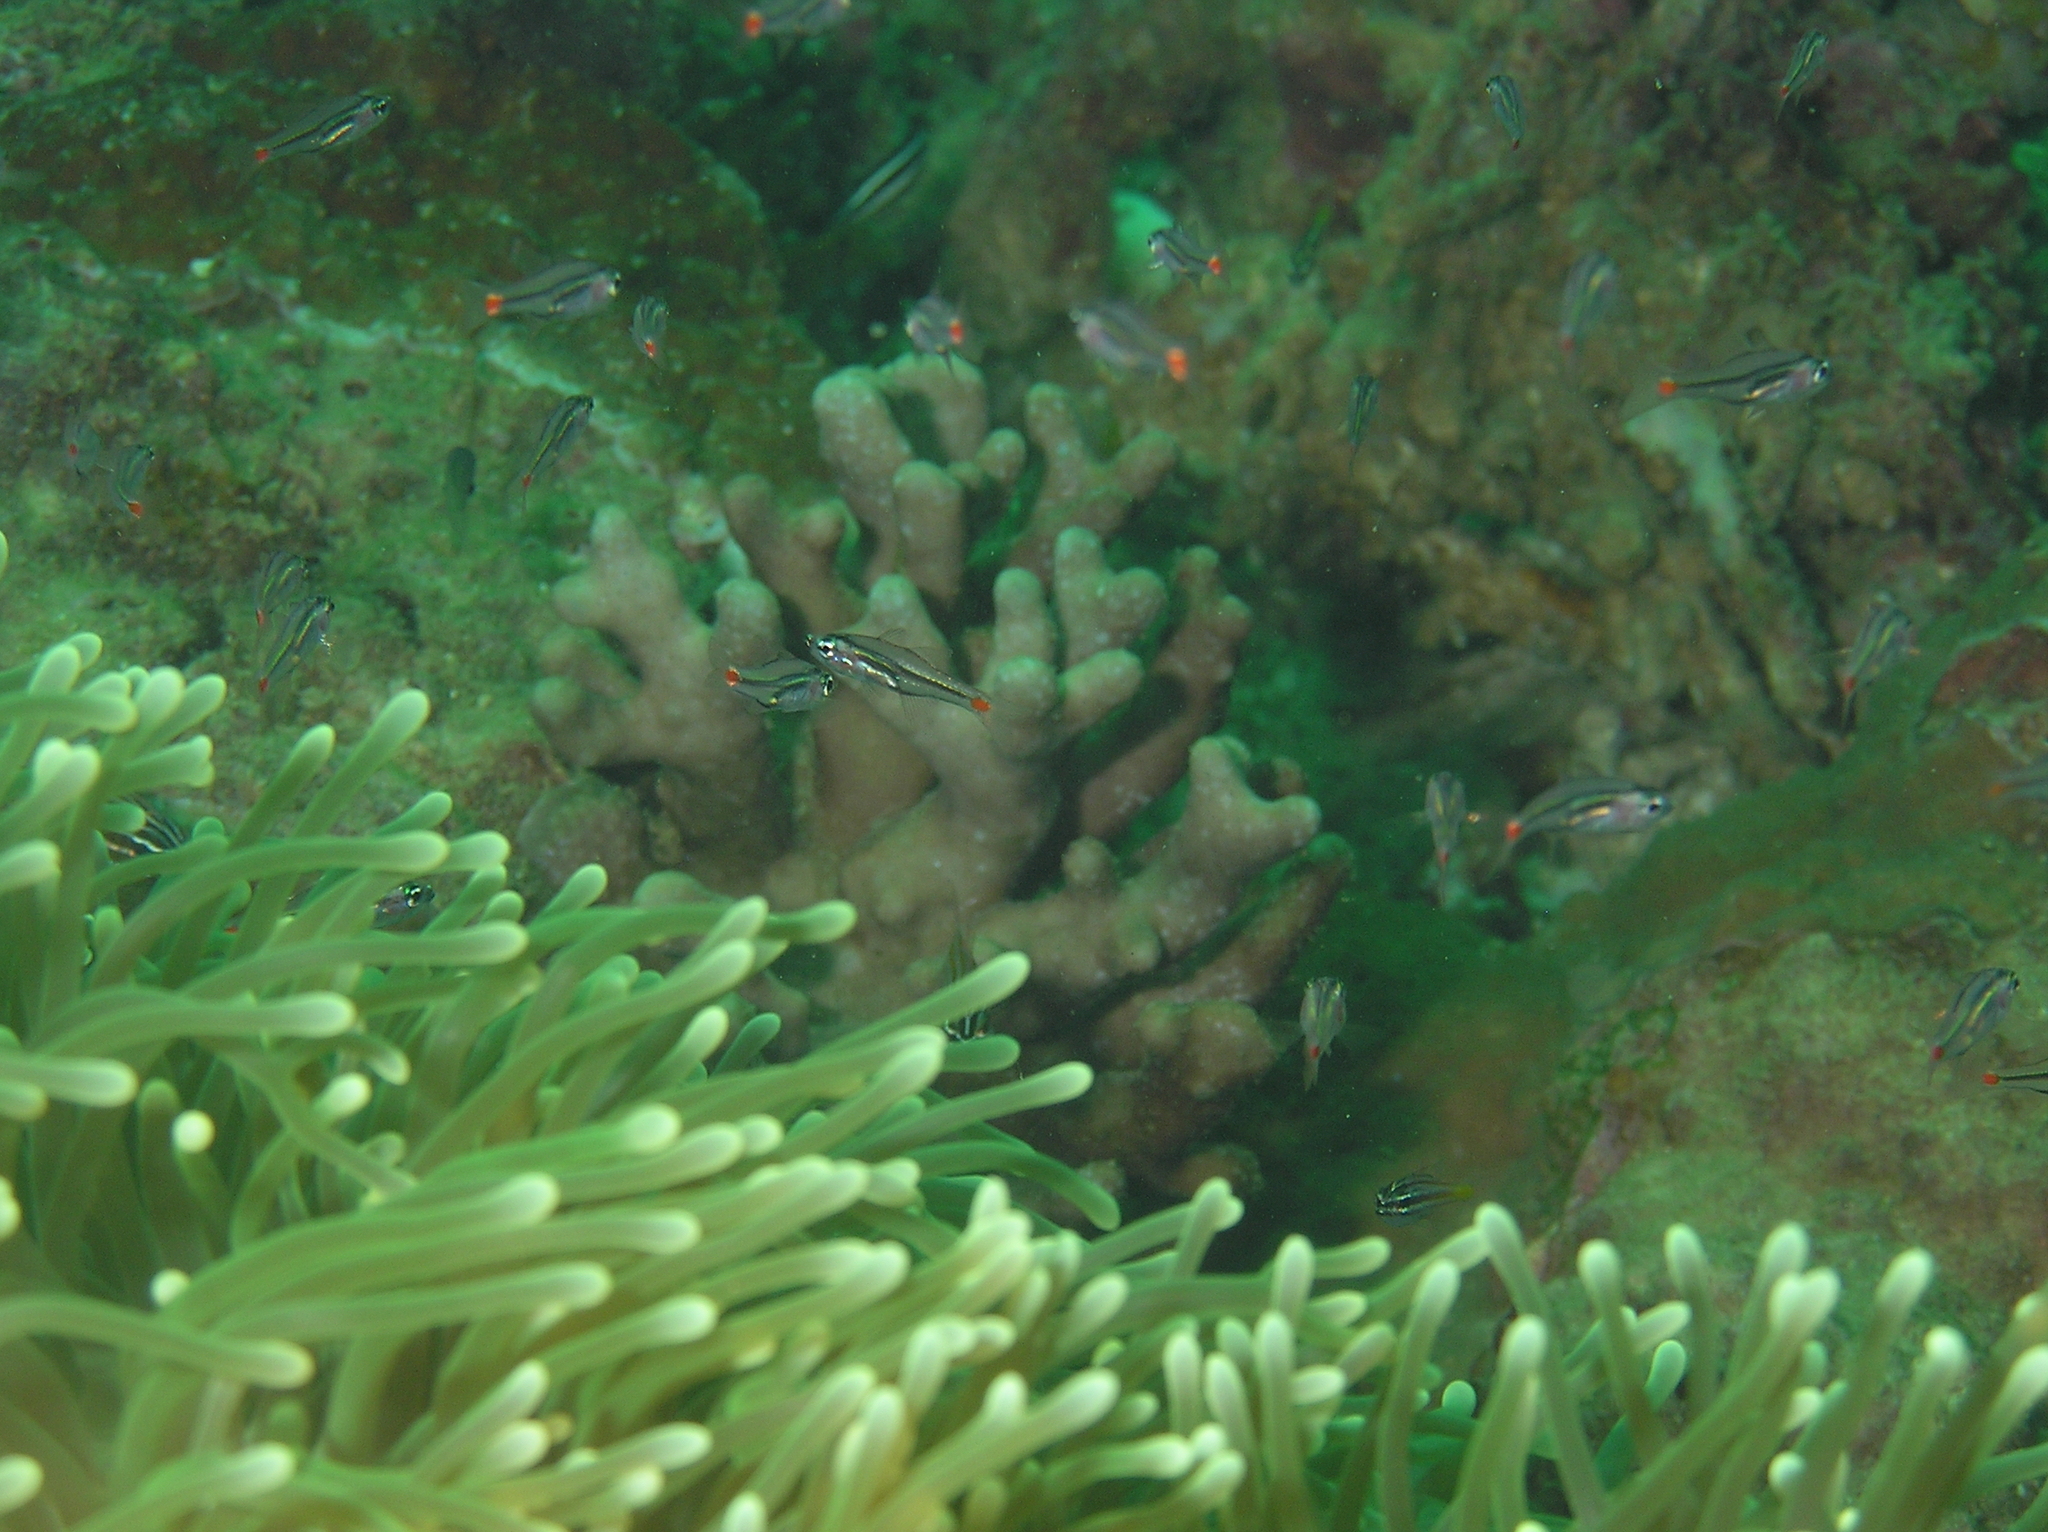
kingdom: Animalia
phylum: Chordata
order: Perciformes
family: Apogonidae
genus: Ostorhinchus
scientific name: Ostorhinchus parvulus
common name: Red-spot cardinalfish
